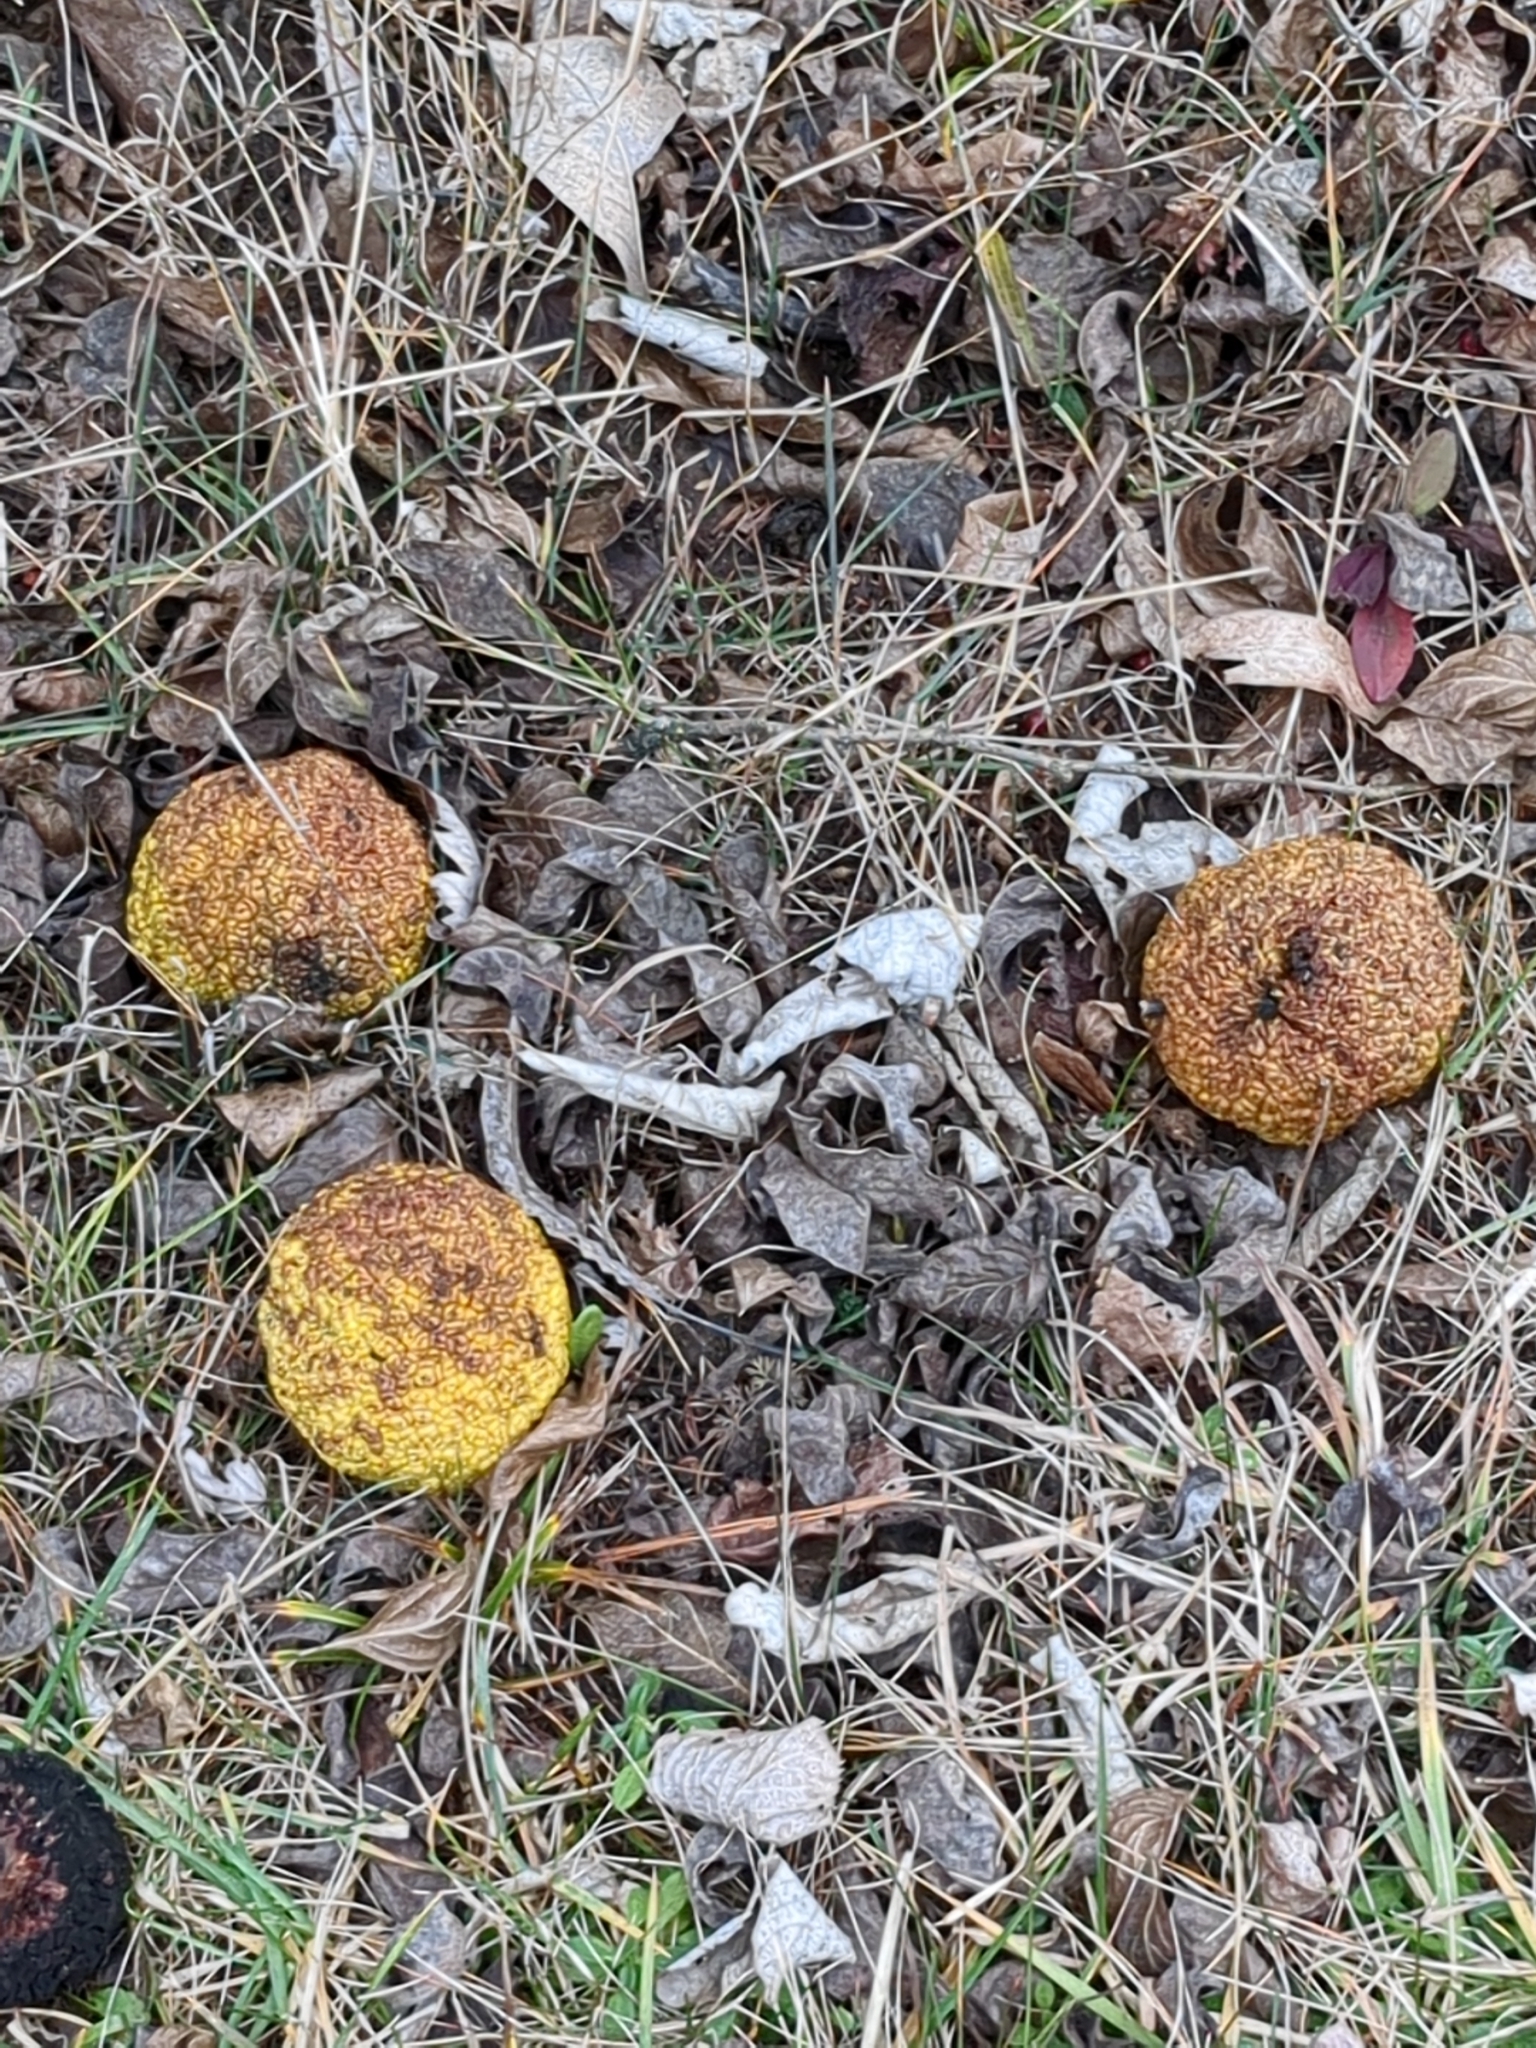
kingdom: Plantae
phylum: Tracheophyta
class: Magnoliopsida
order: Rosales
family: Moraceae
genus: Maclura
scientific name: Maclura pomifera
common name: Osage-orange
